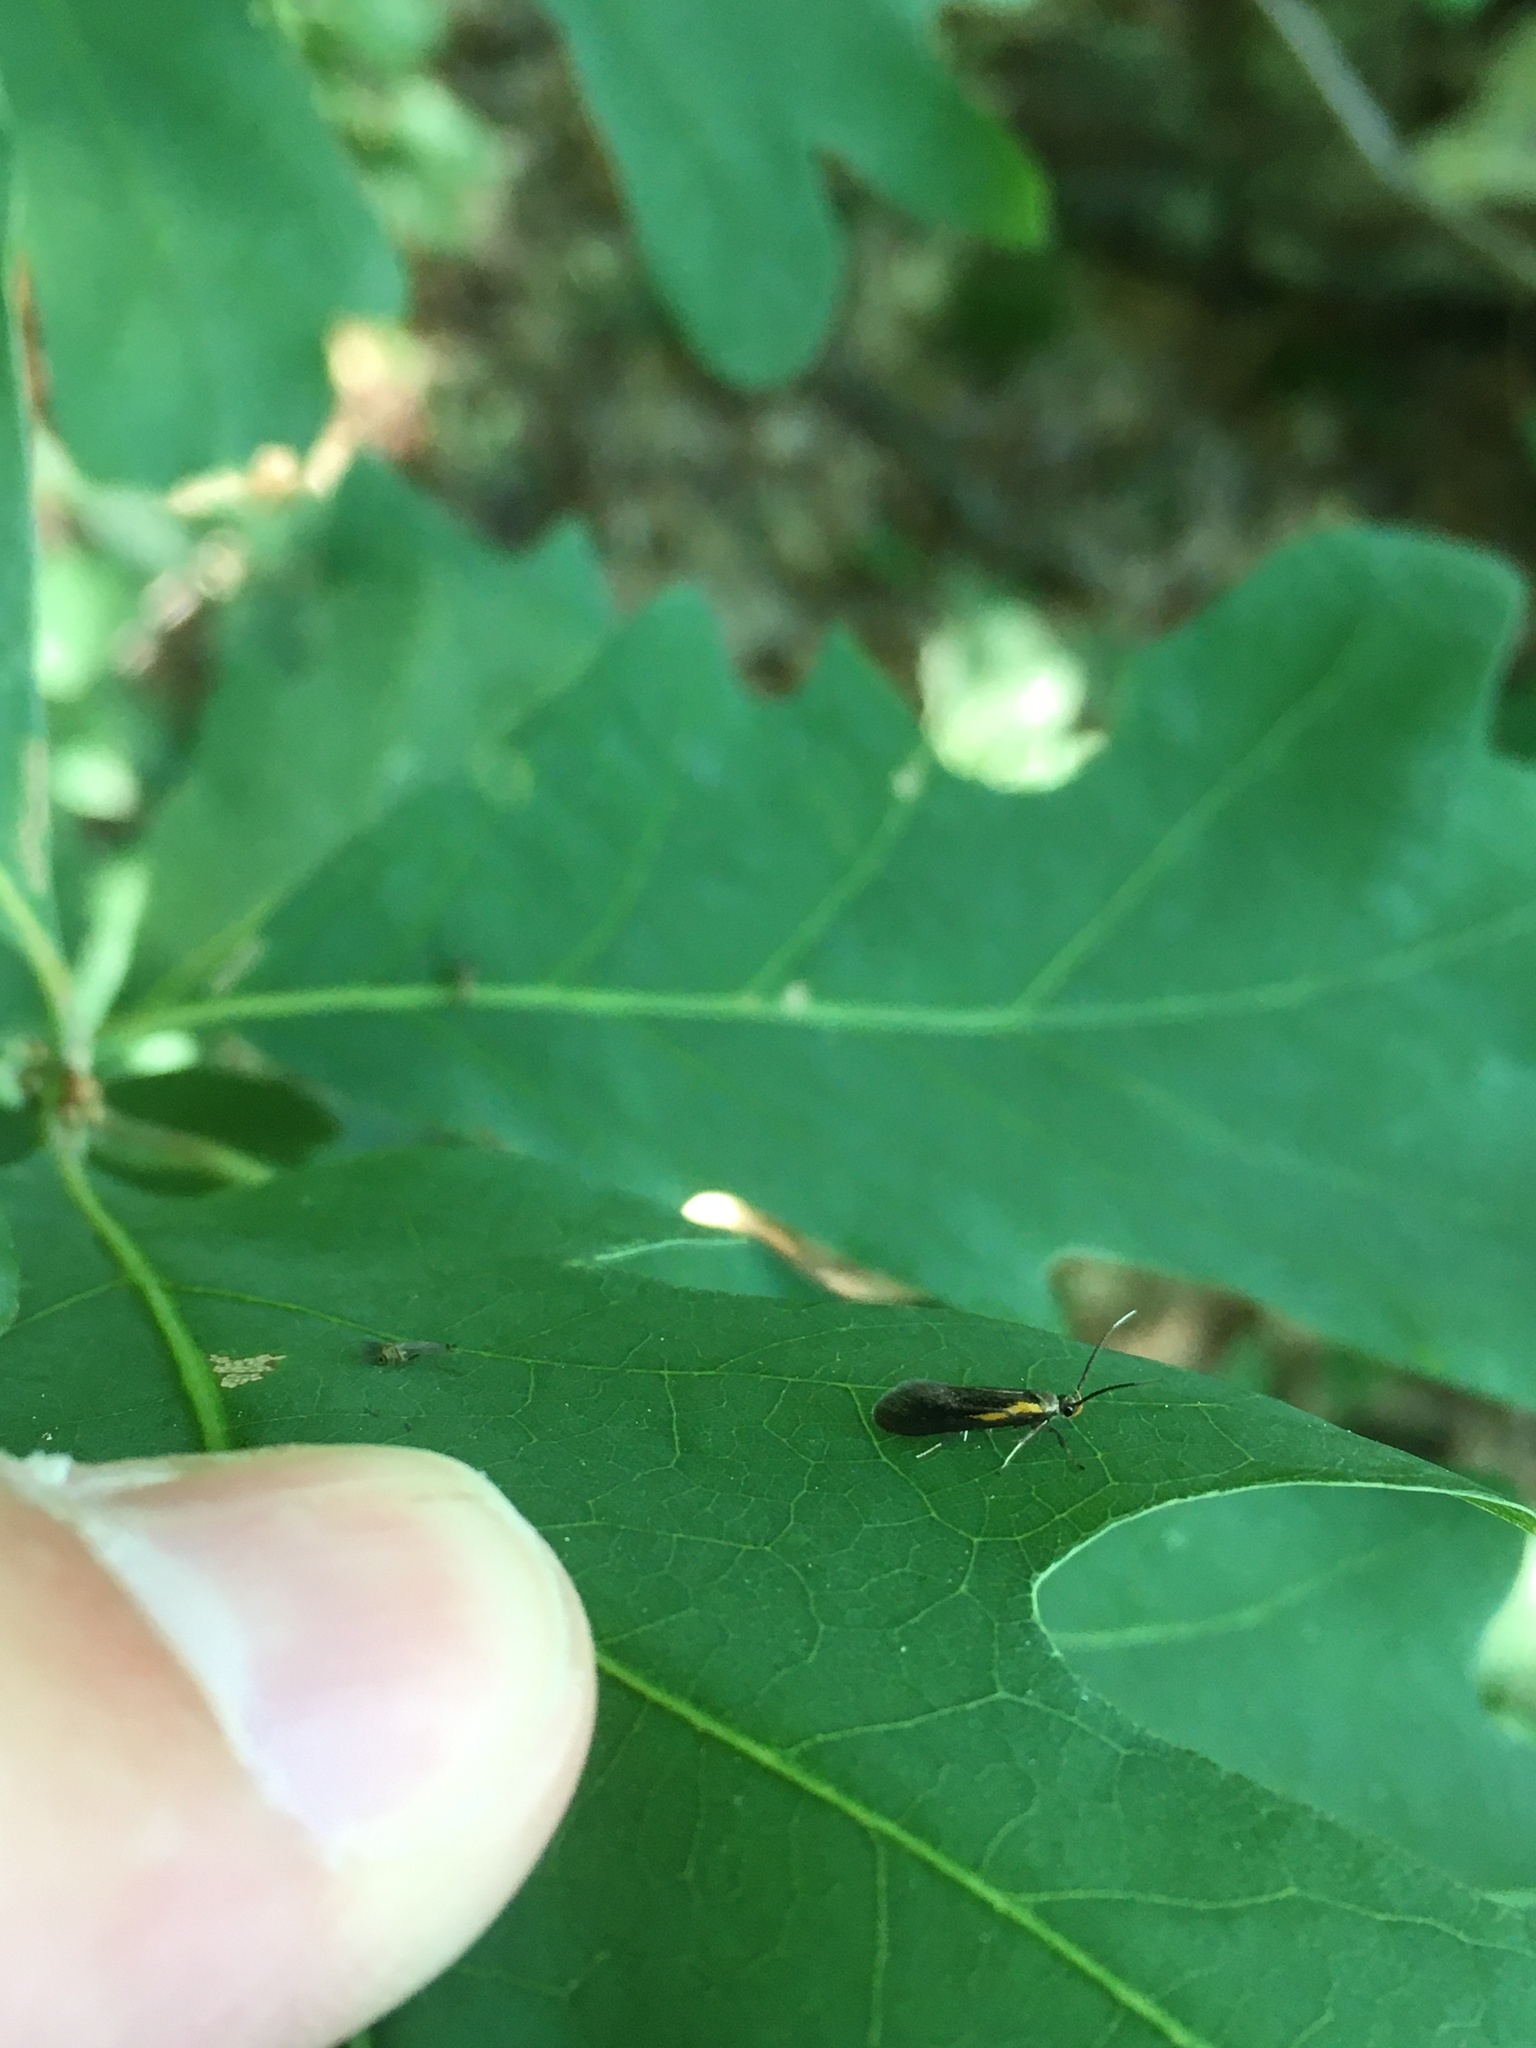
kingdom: Animalia
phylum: Arthropoda
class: Insecta
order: Lepidoptera
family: Oecophoridae
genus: Mathildana
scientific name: Mathildana newmanella
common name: Newman's mathildana moth
